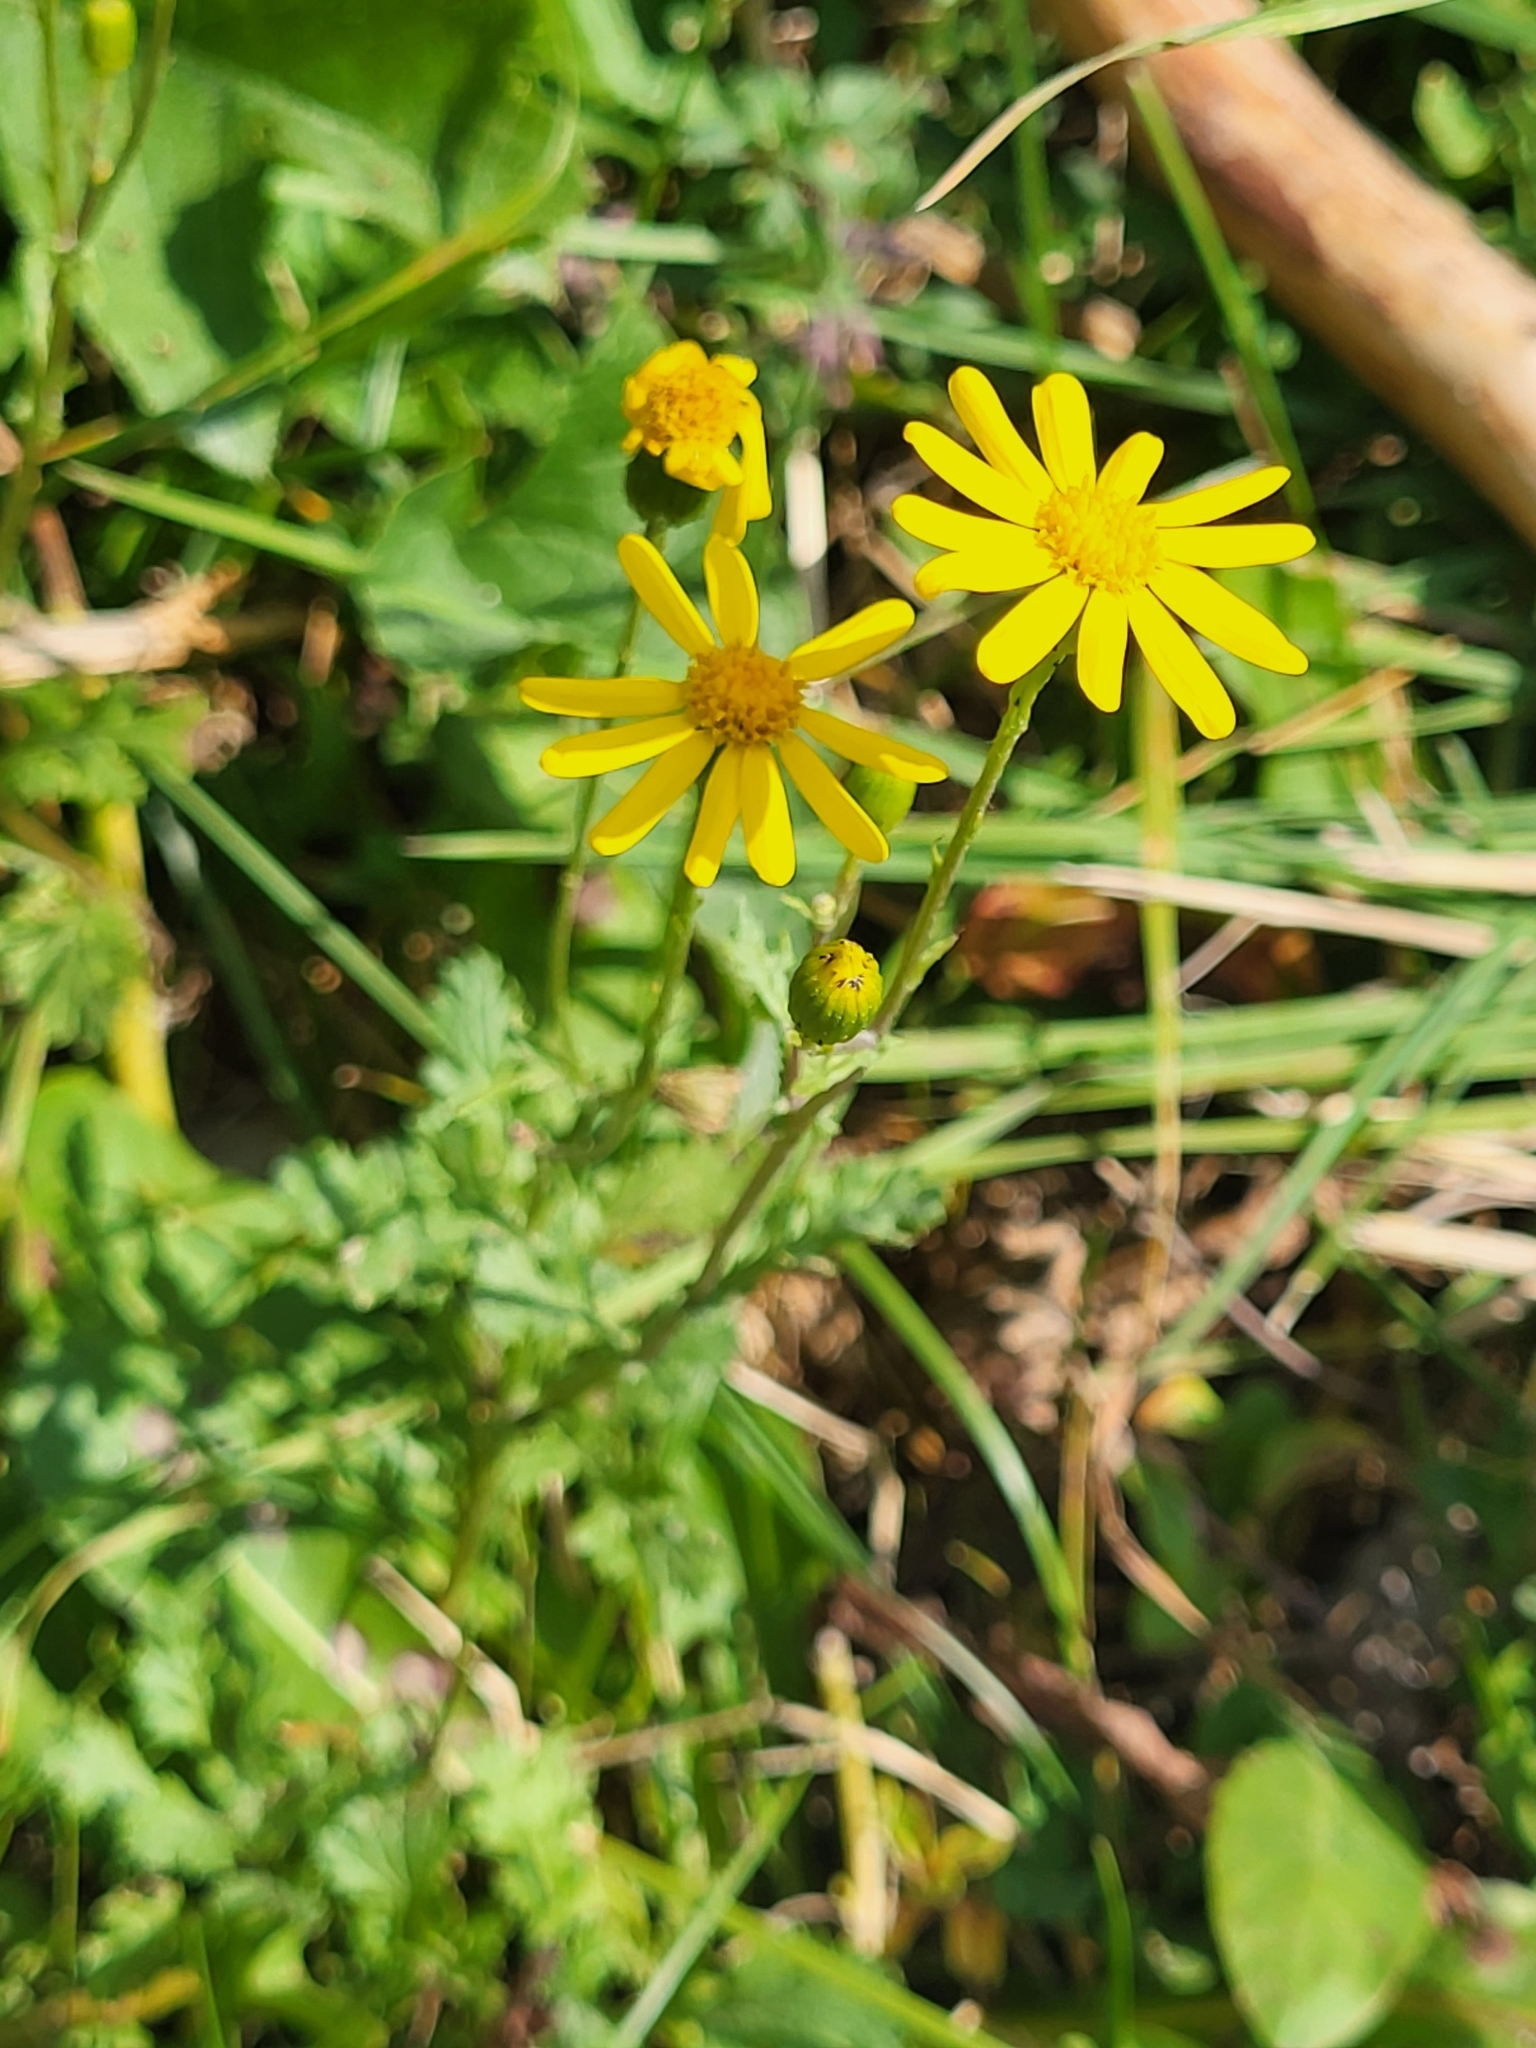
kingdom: Plantae
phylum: Tracheophyta
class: Magnoliopsida
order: Asterales
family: Asteraceae
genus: Senecio
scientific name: Senecio rupestris
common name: Rock ragwort
